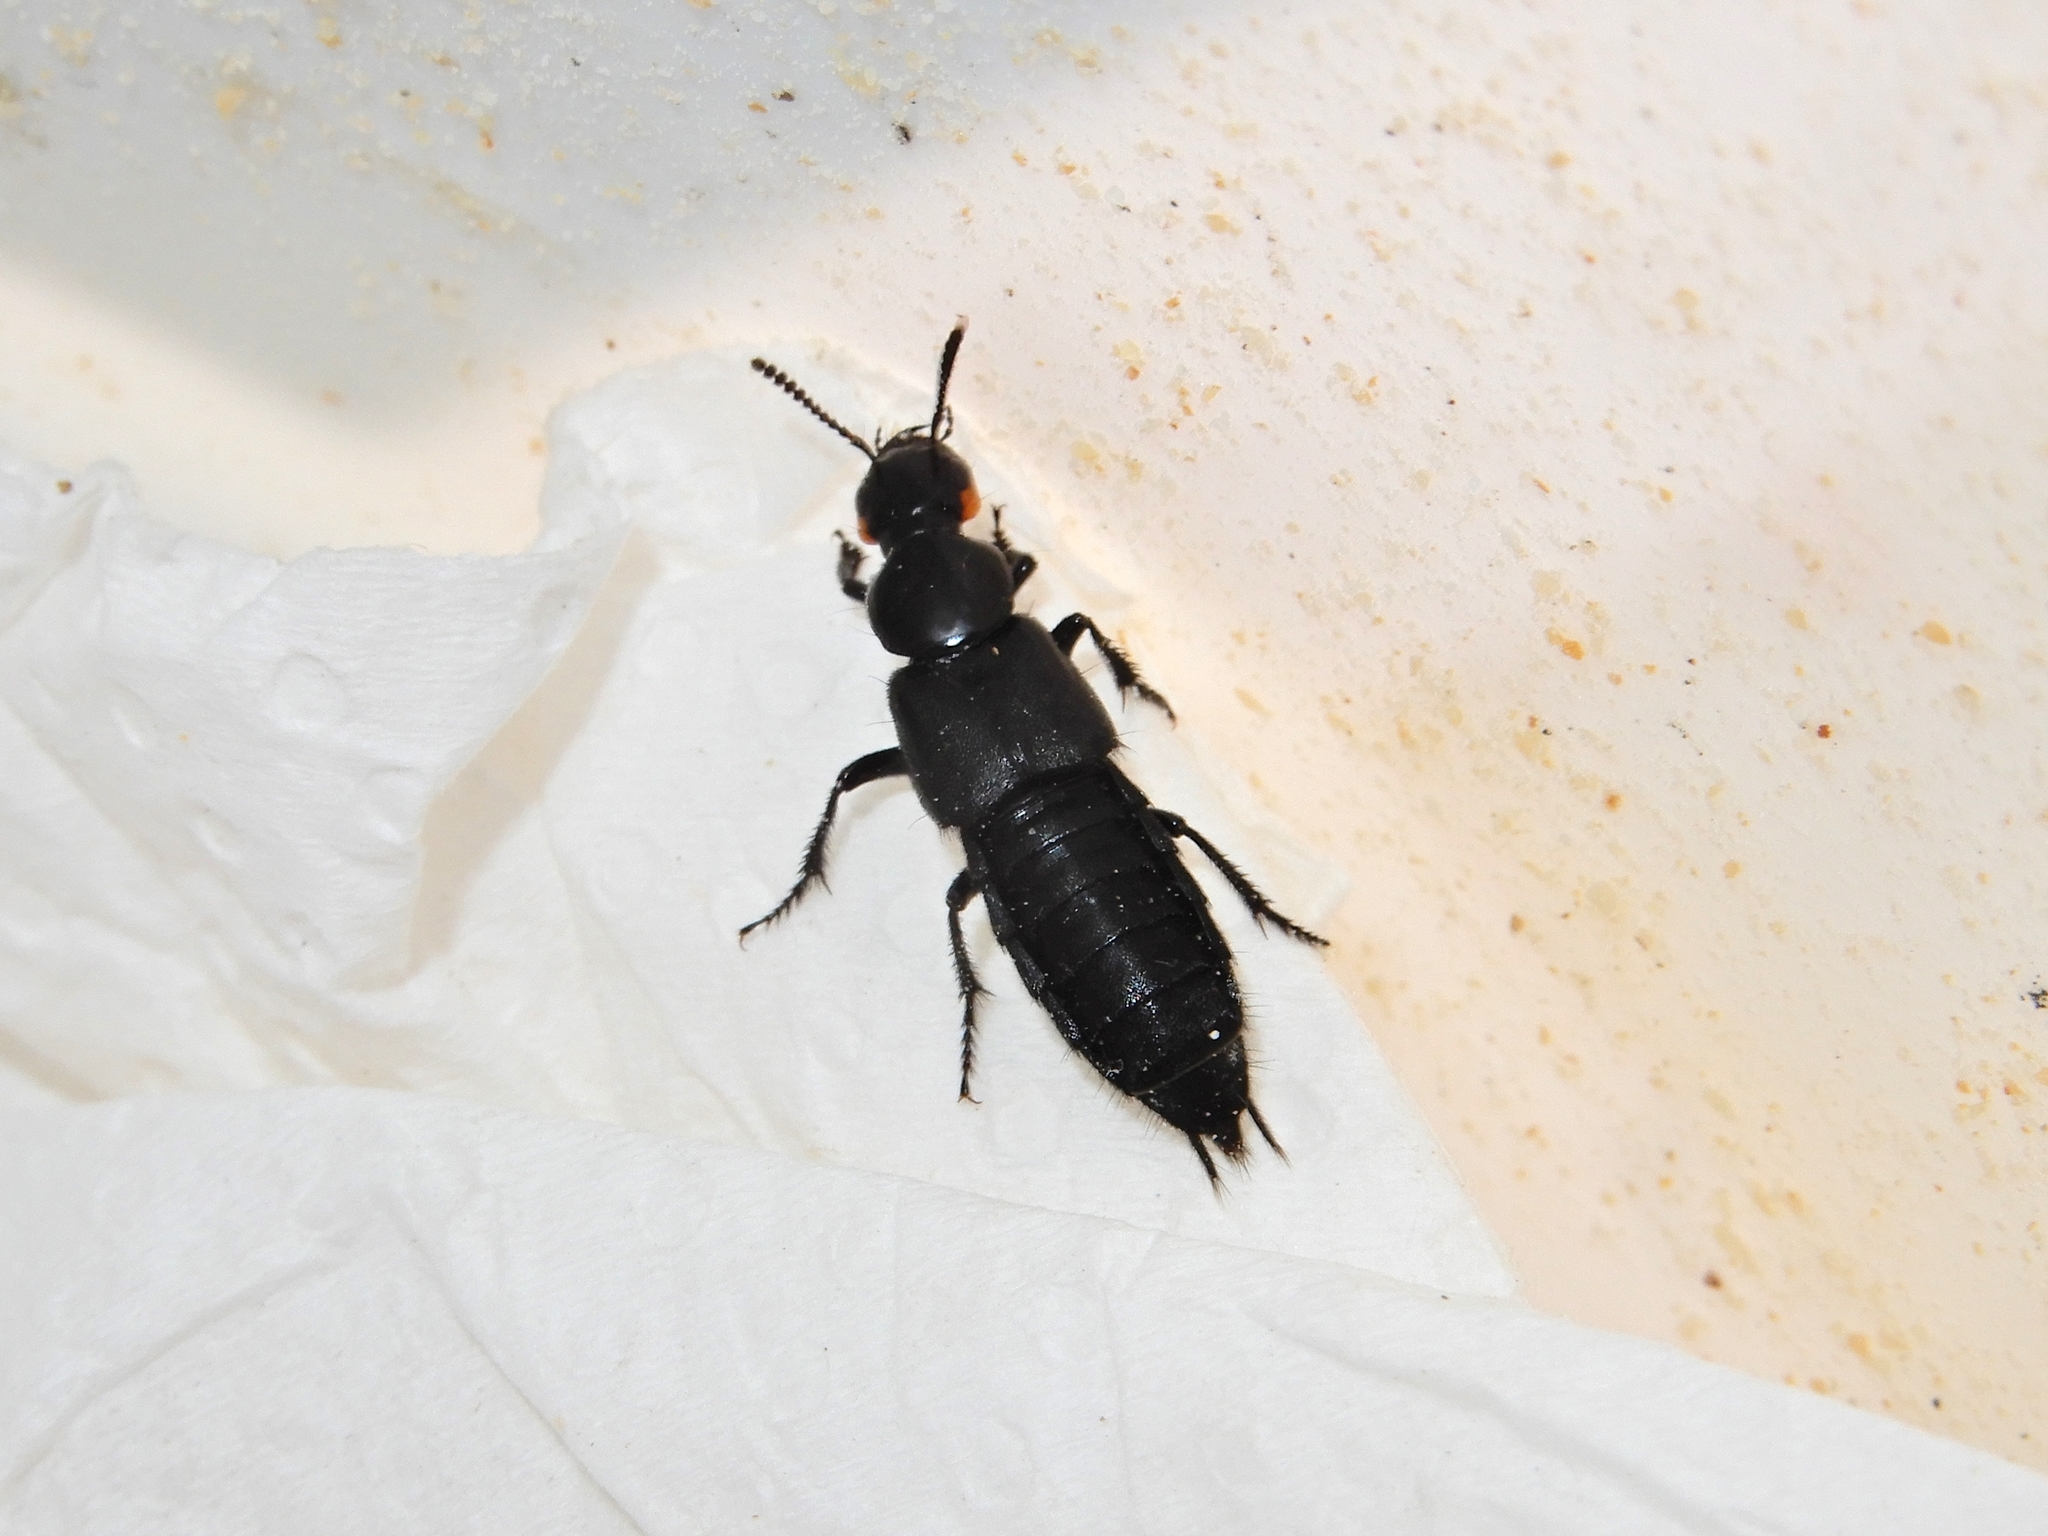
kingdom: Animalia
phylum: Arthropoda
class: Insecta
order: Coleoptera
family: Staphylinidae
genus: Creophilus
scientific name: Creophilus oculatus
